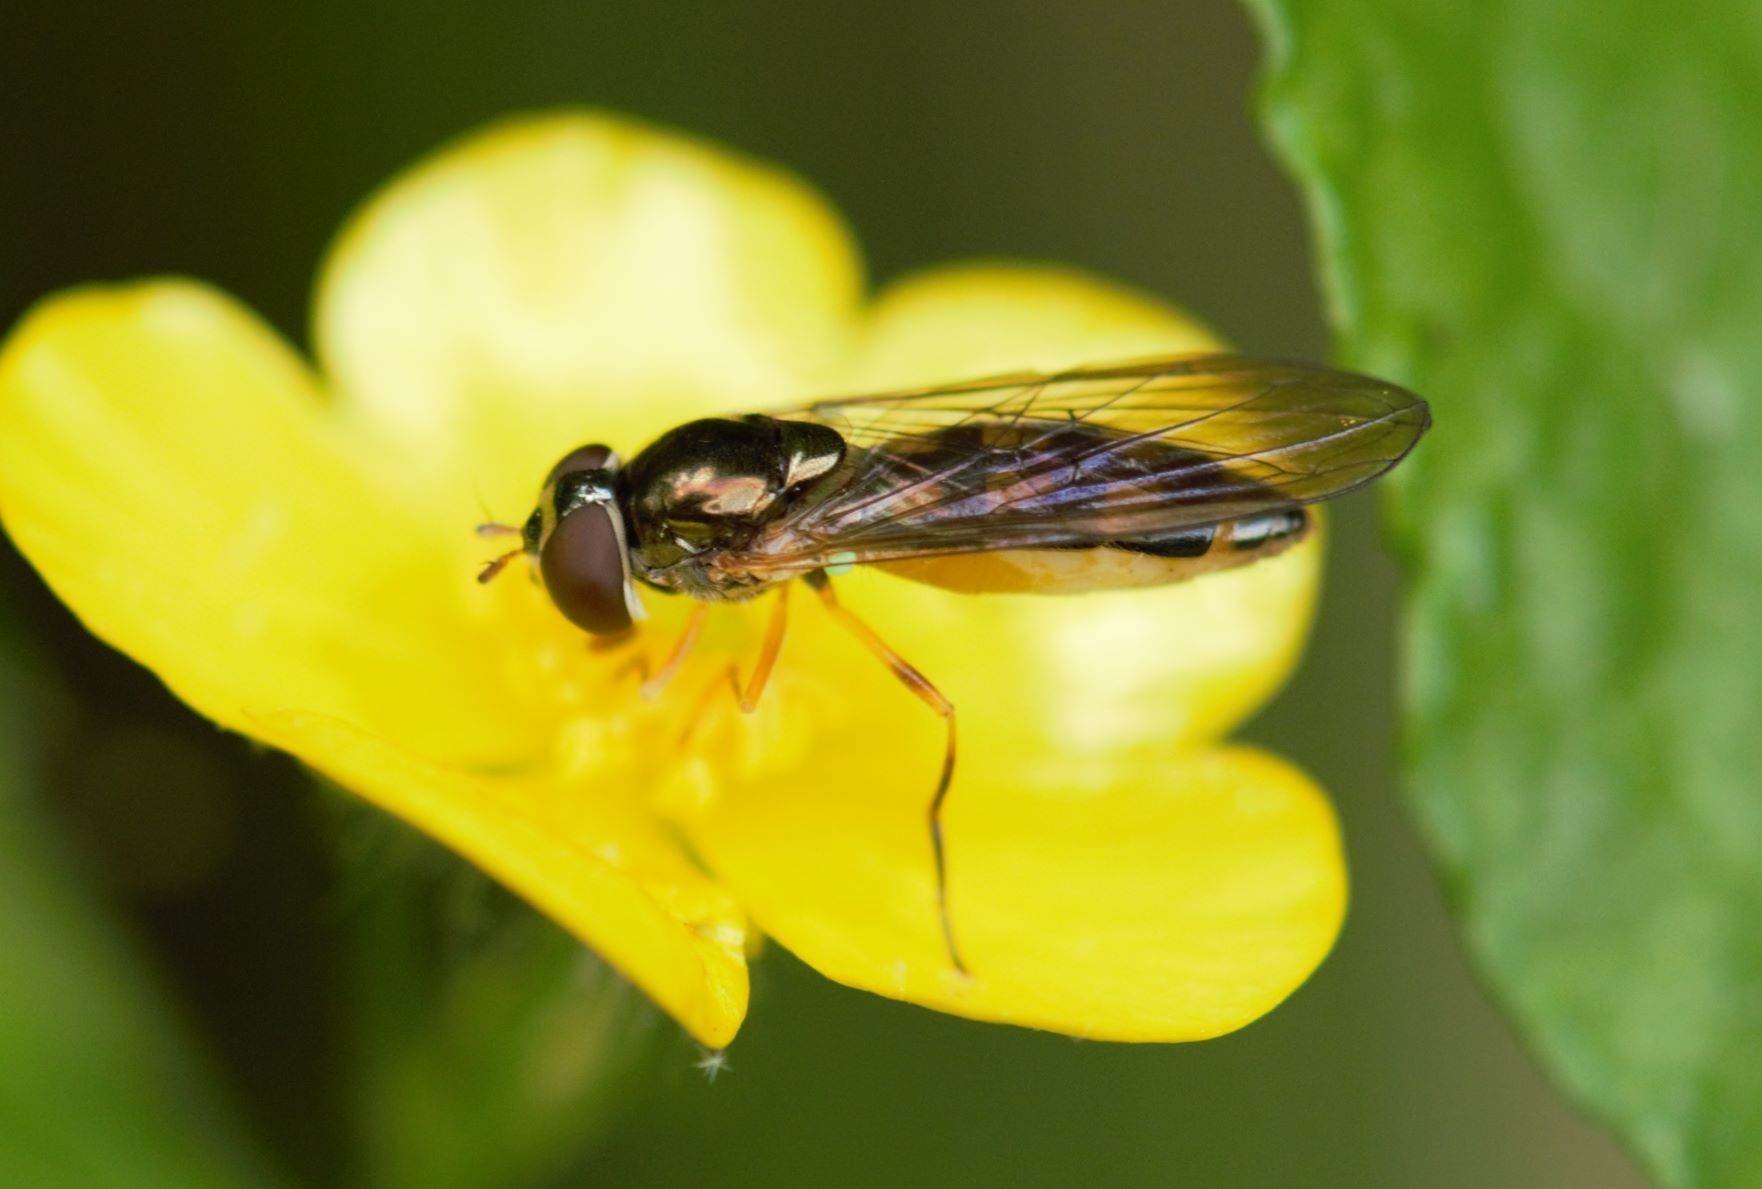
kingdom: Animalia
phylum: Arthropoda
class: Insecta
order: Diptera
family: Syrphidae
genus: Melanostoma
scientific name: Melanostoma scalare
